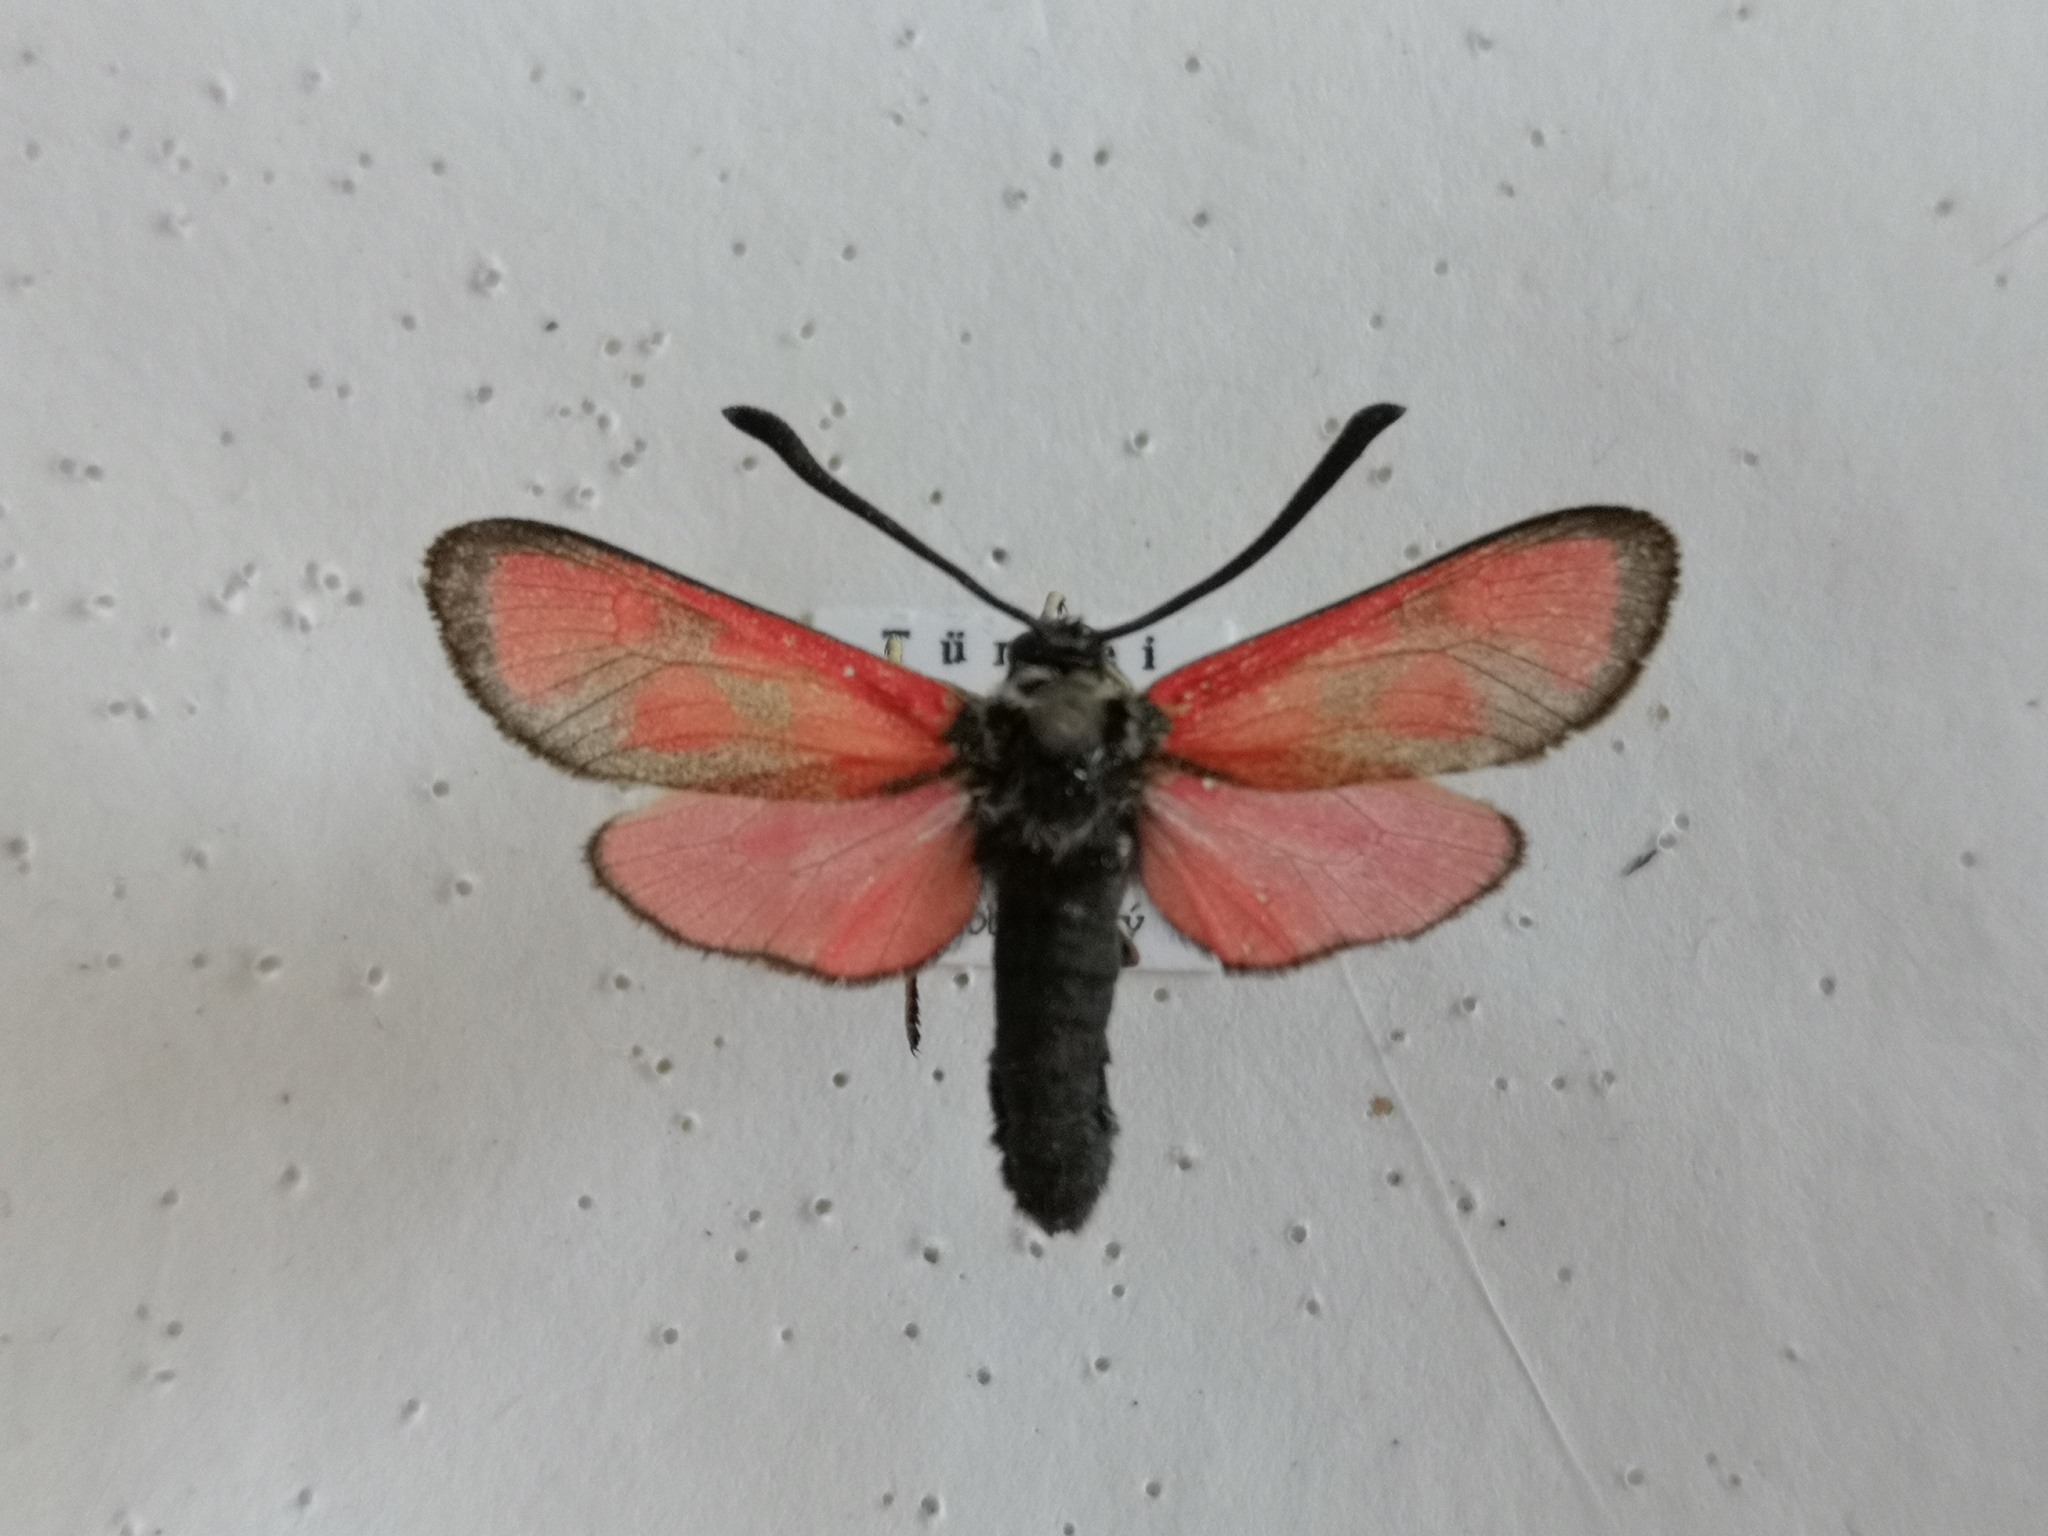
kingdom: Animalia
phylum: Arthropoda
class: Insecta
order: Lepidoptera
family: Zygaenidae
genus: Zygaena
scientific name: Zygaena loti
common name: Slender scotch burnet
